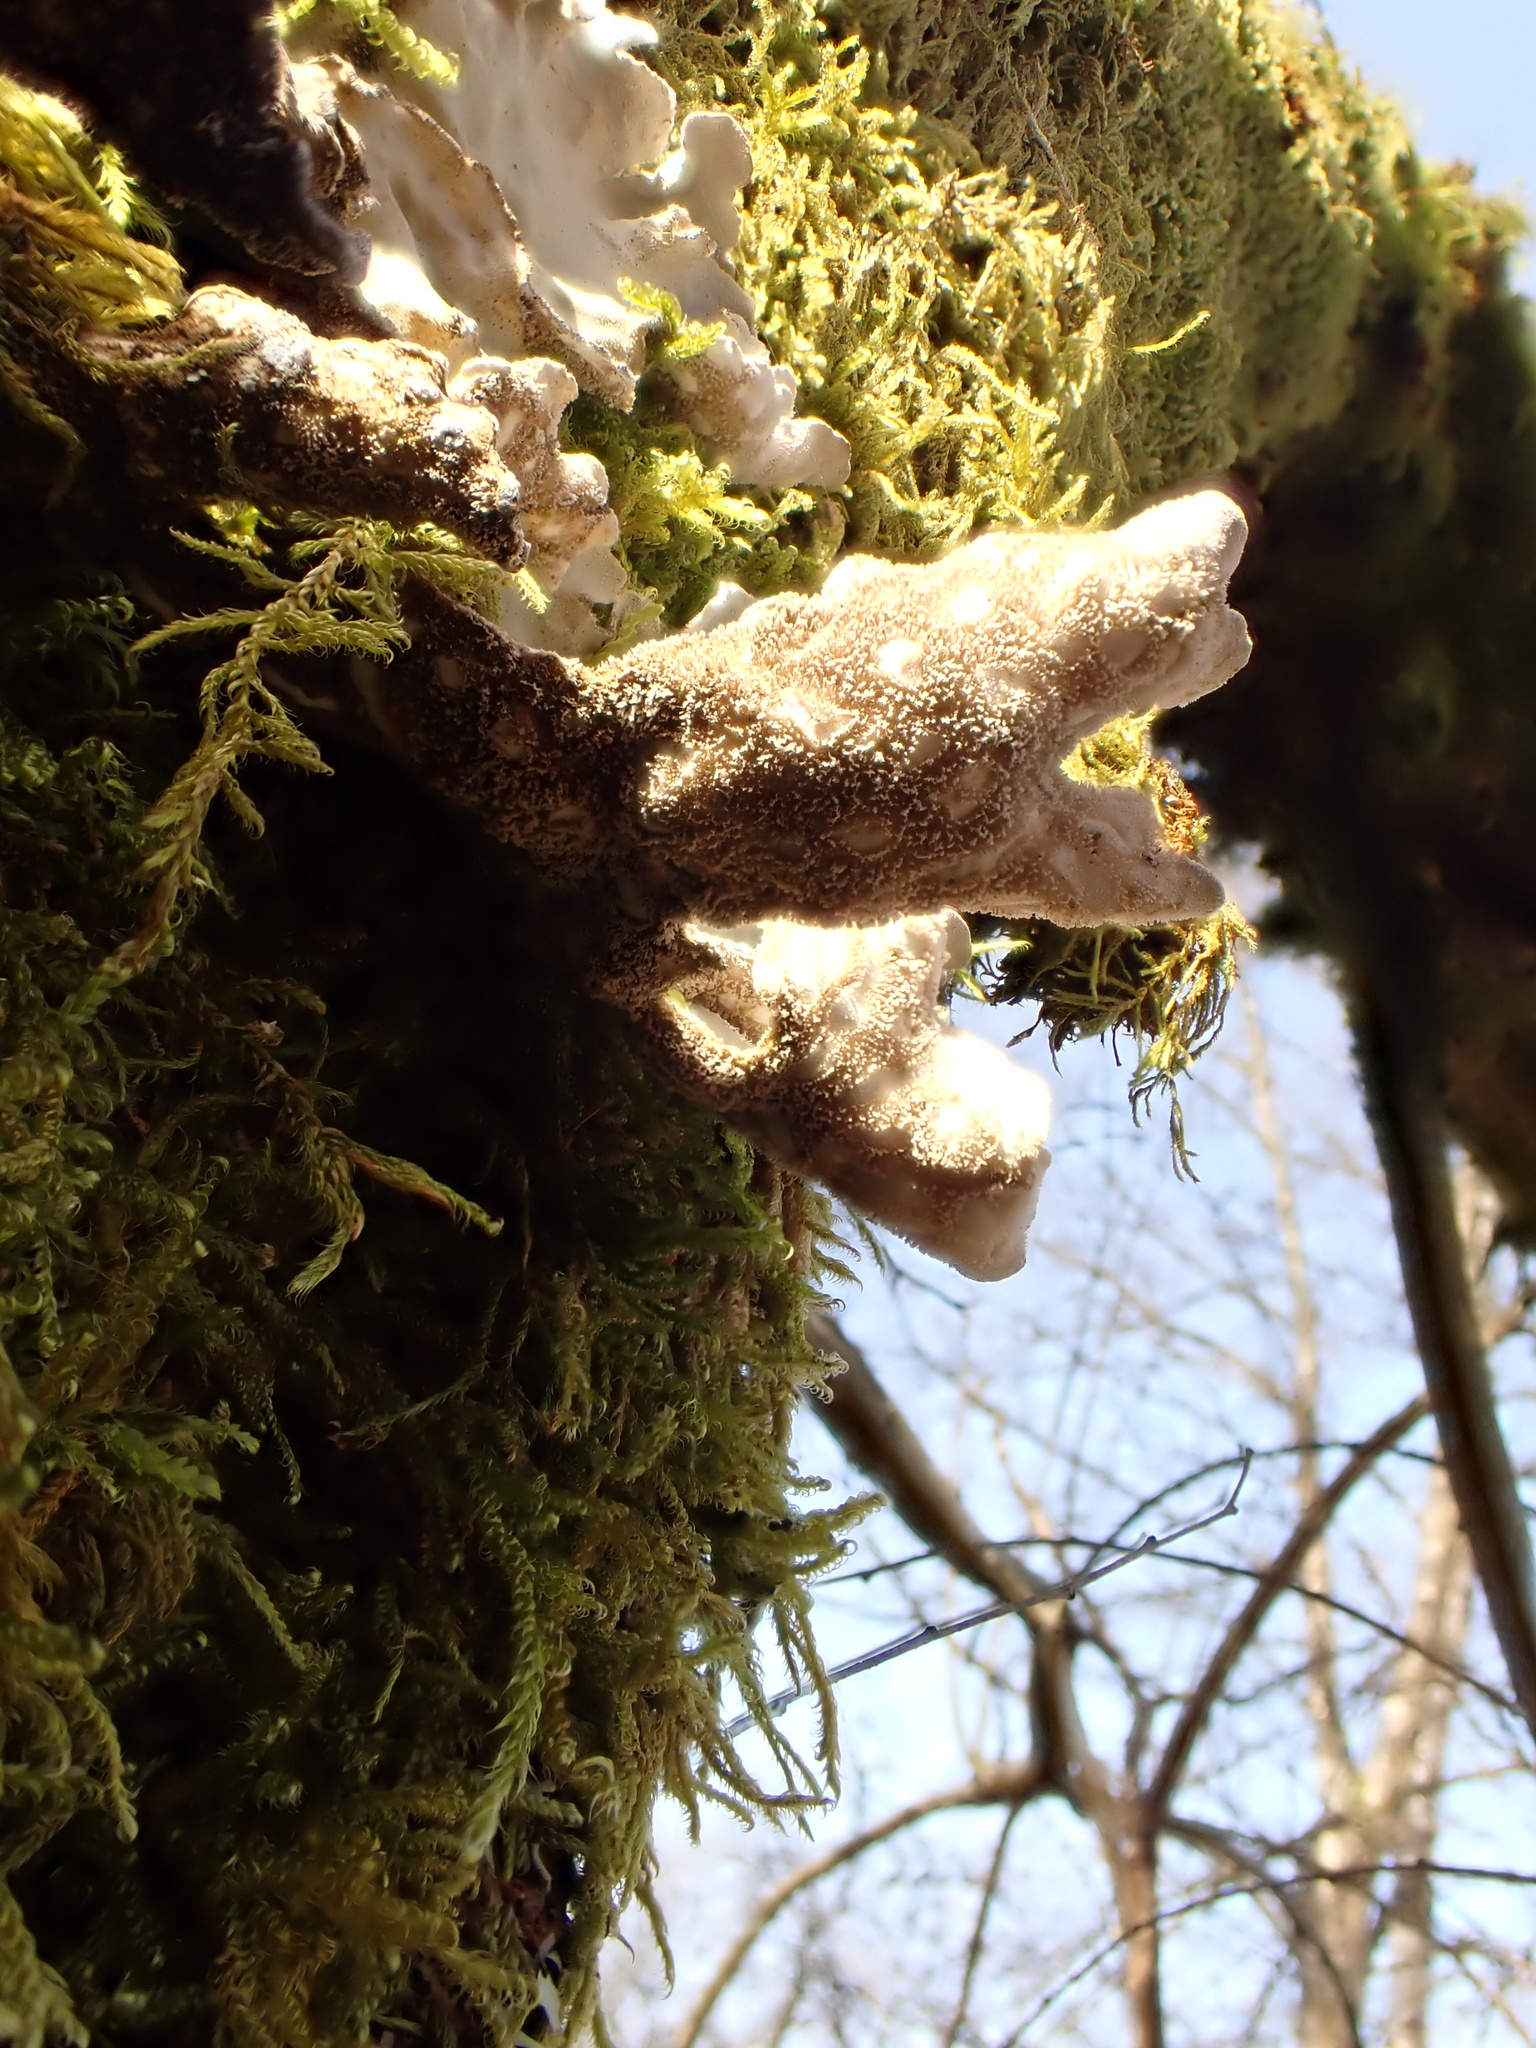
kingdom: Fungi
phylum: Ascomycota
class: Lecanoromycetes
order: Peltigerales
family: Lobariaceae
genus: Lobarina
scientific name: Lobarina scrobiculata
